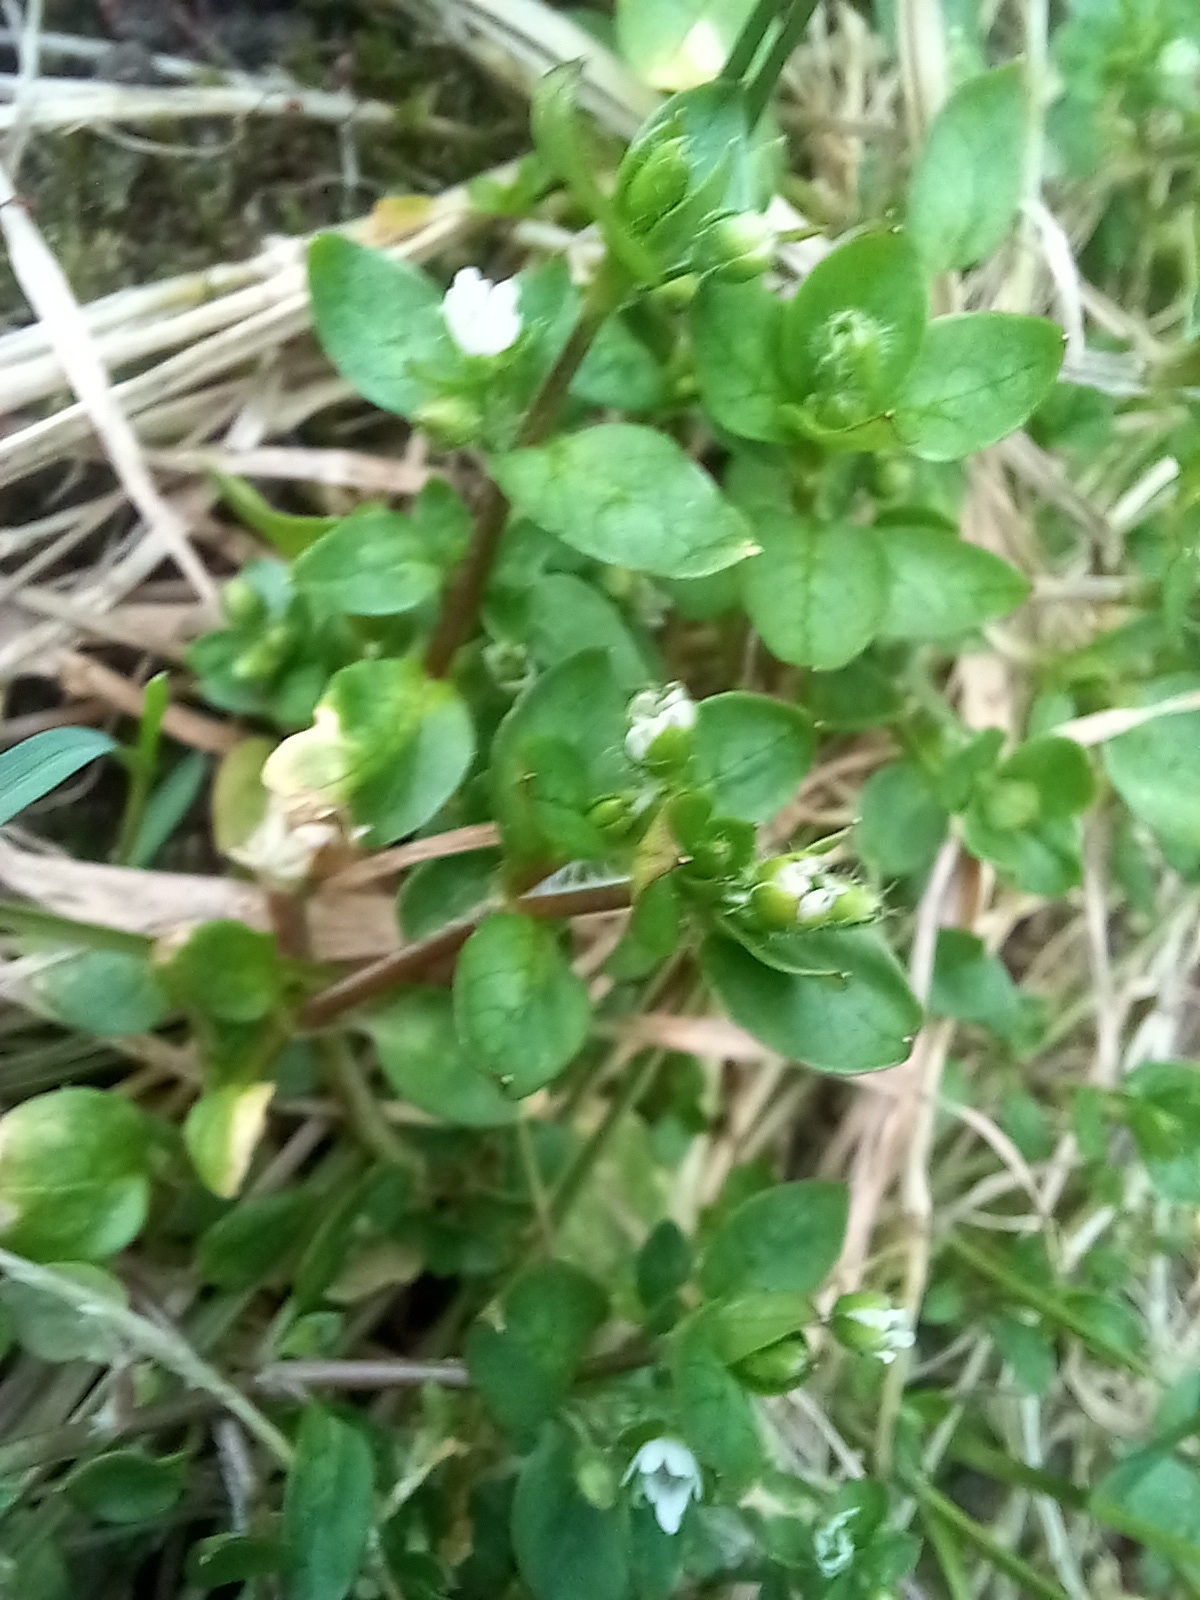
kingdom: Plantae
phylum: Tracheophyta
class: Magnoliopsida
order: Caryophyllales
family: Caryophyllaceae
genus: Stellaria
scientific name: Stellaria media
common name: Common chickweed
